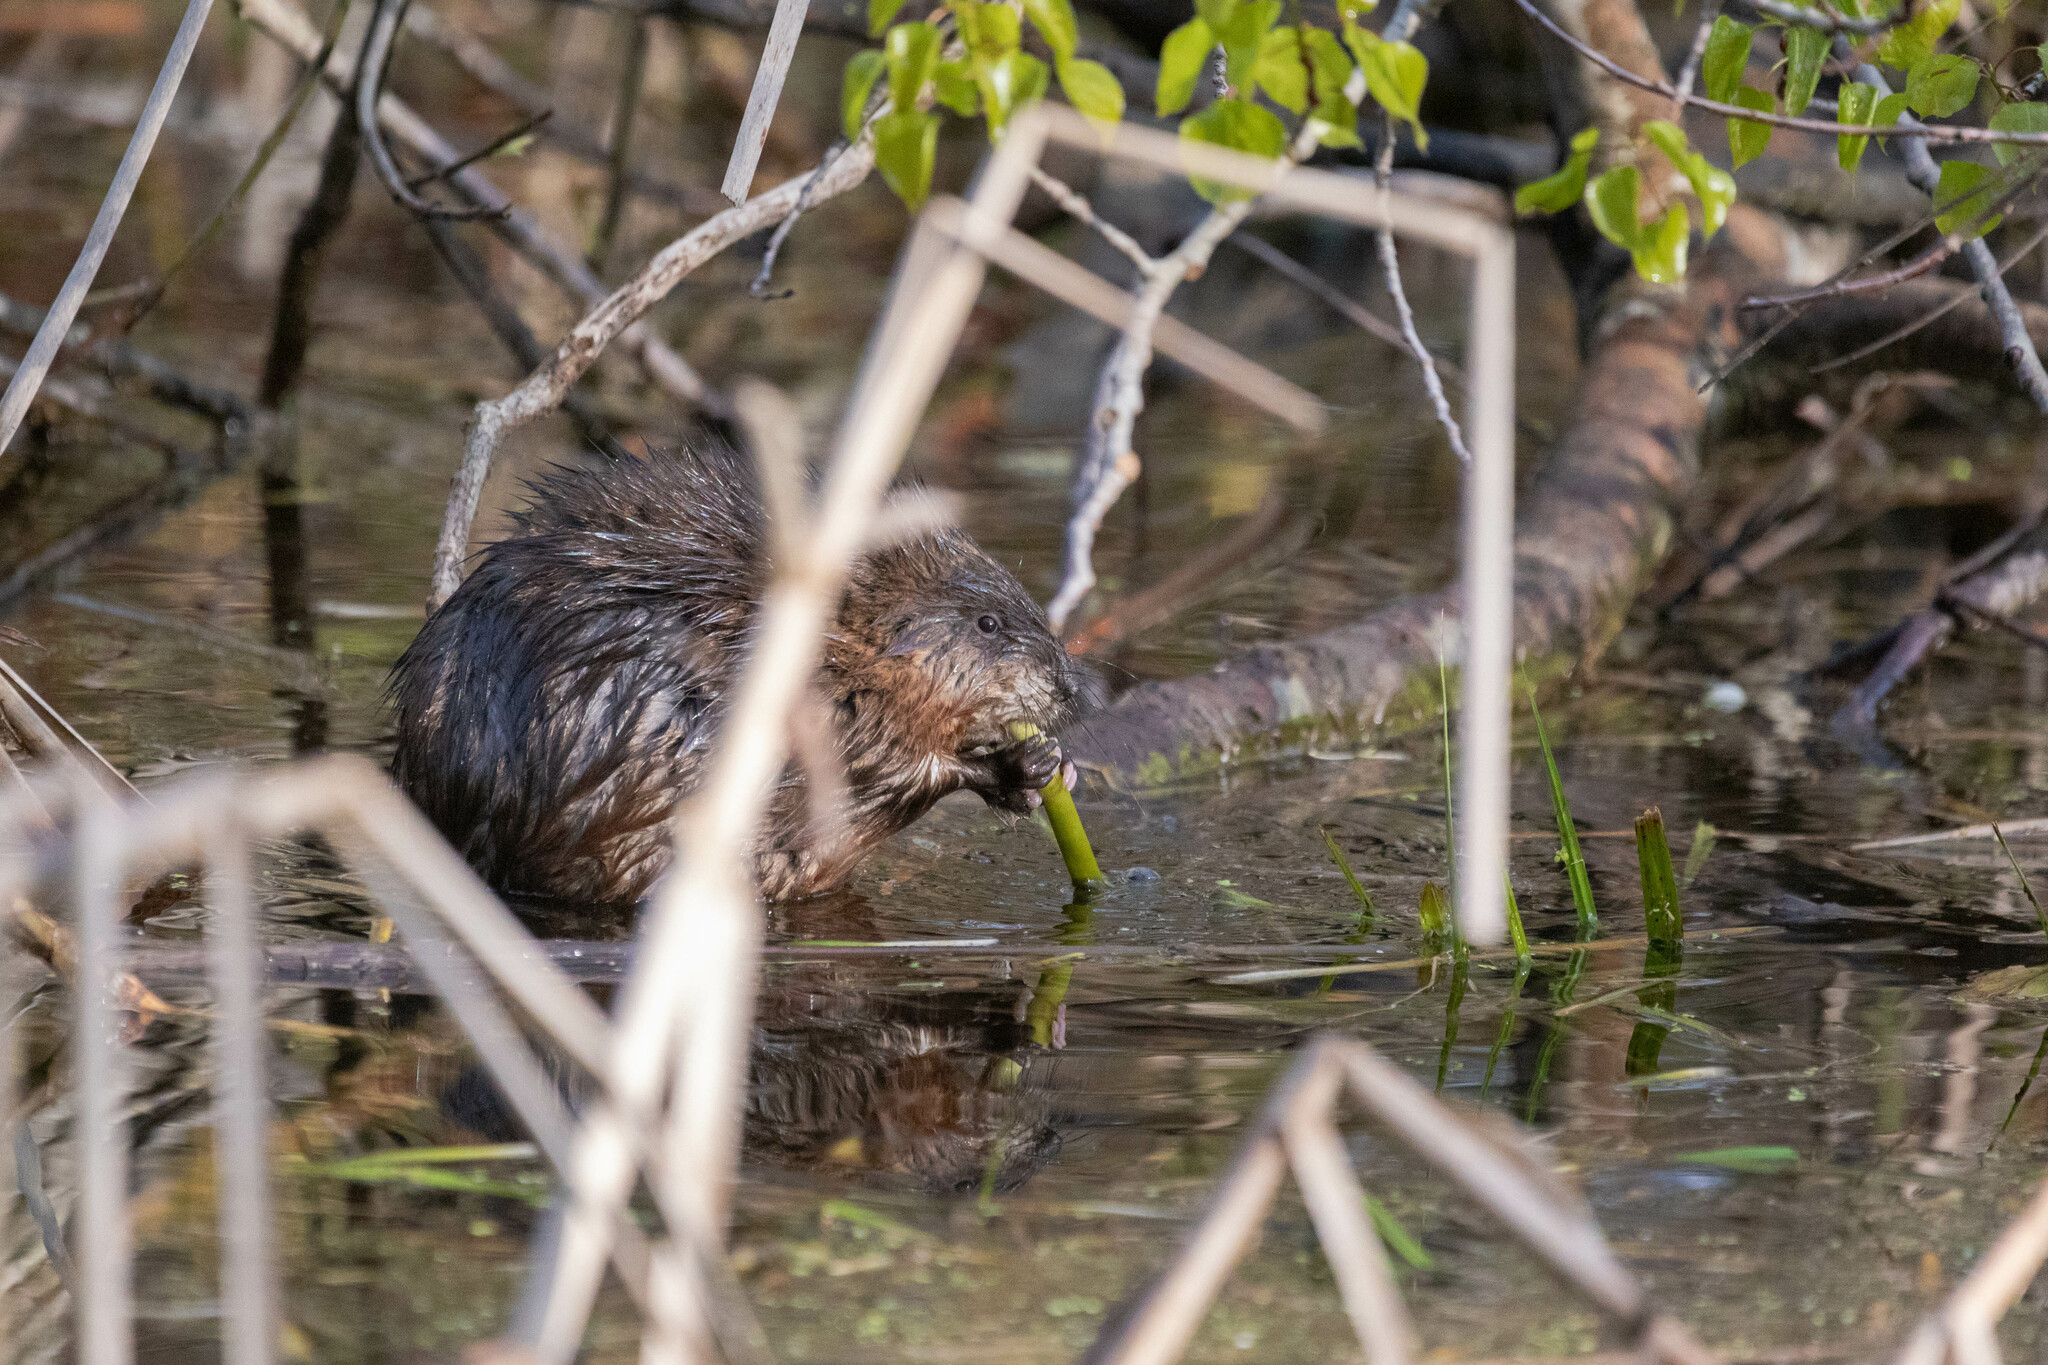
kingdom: Animalia
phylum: Chordata
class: Mammalia
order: Rodentia
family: Cricetidae
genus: Ondatra
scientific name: Ondatra zibethicus
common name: Muskrat
